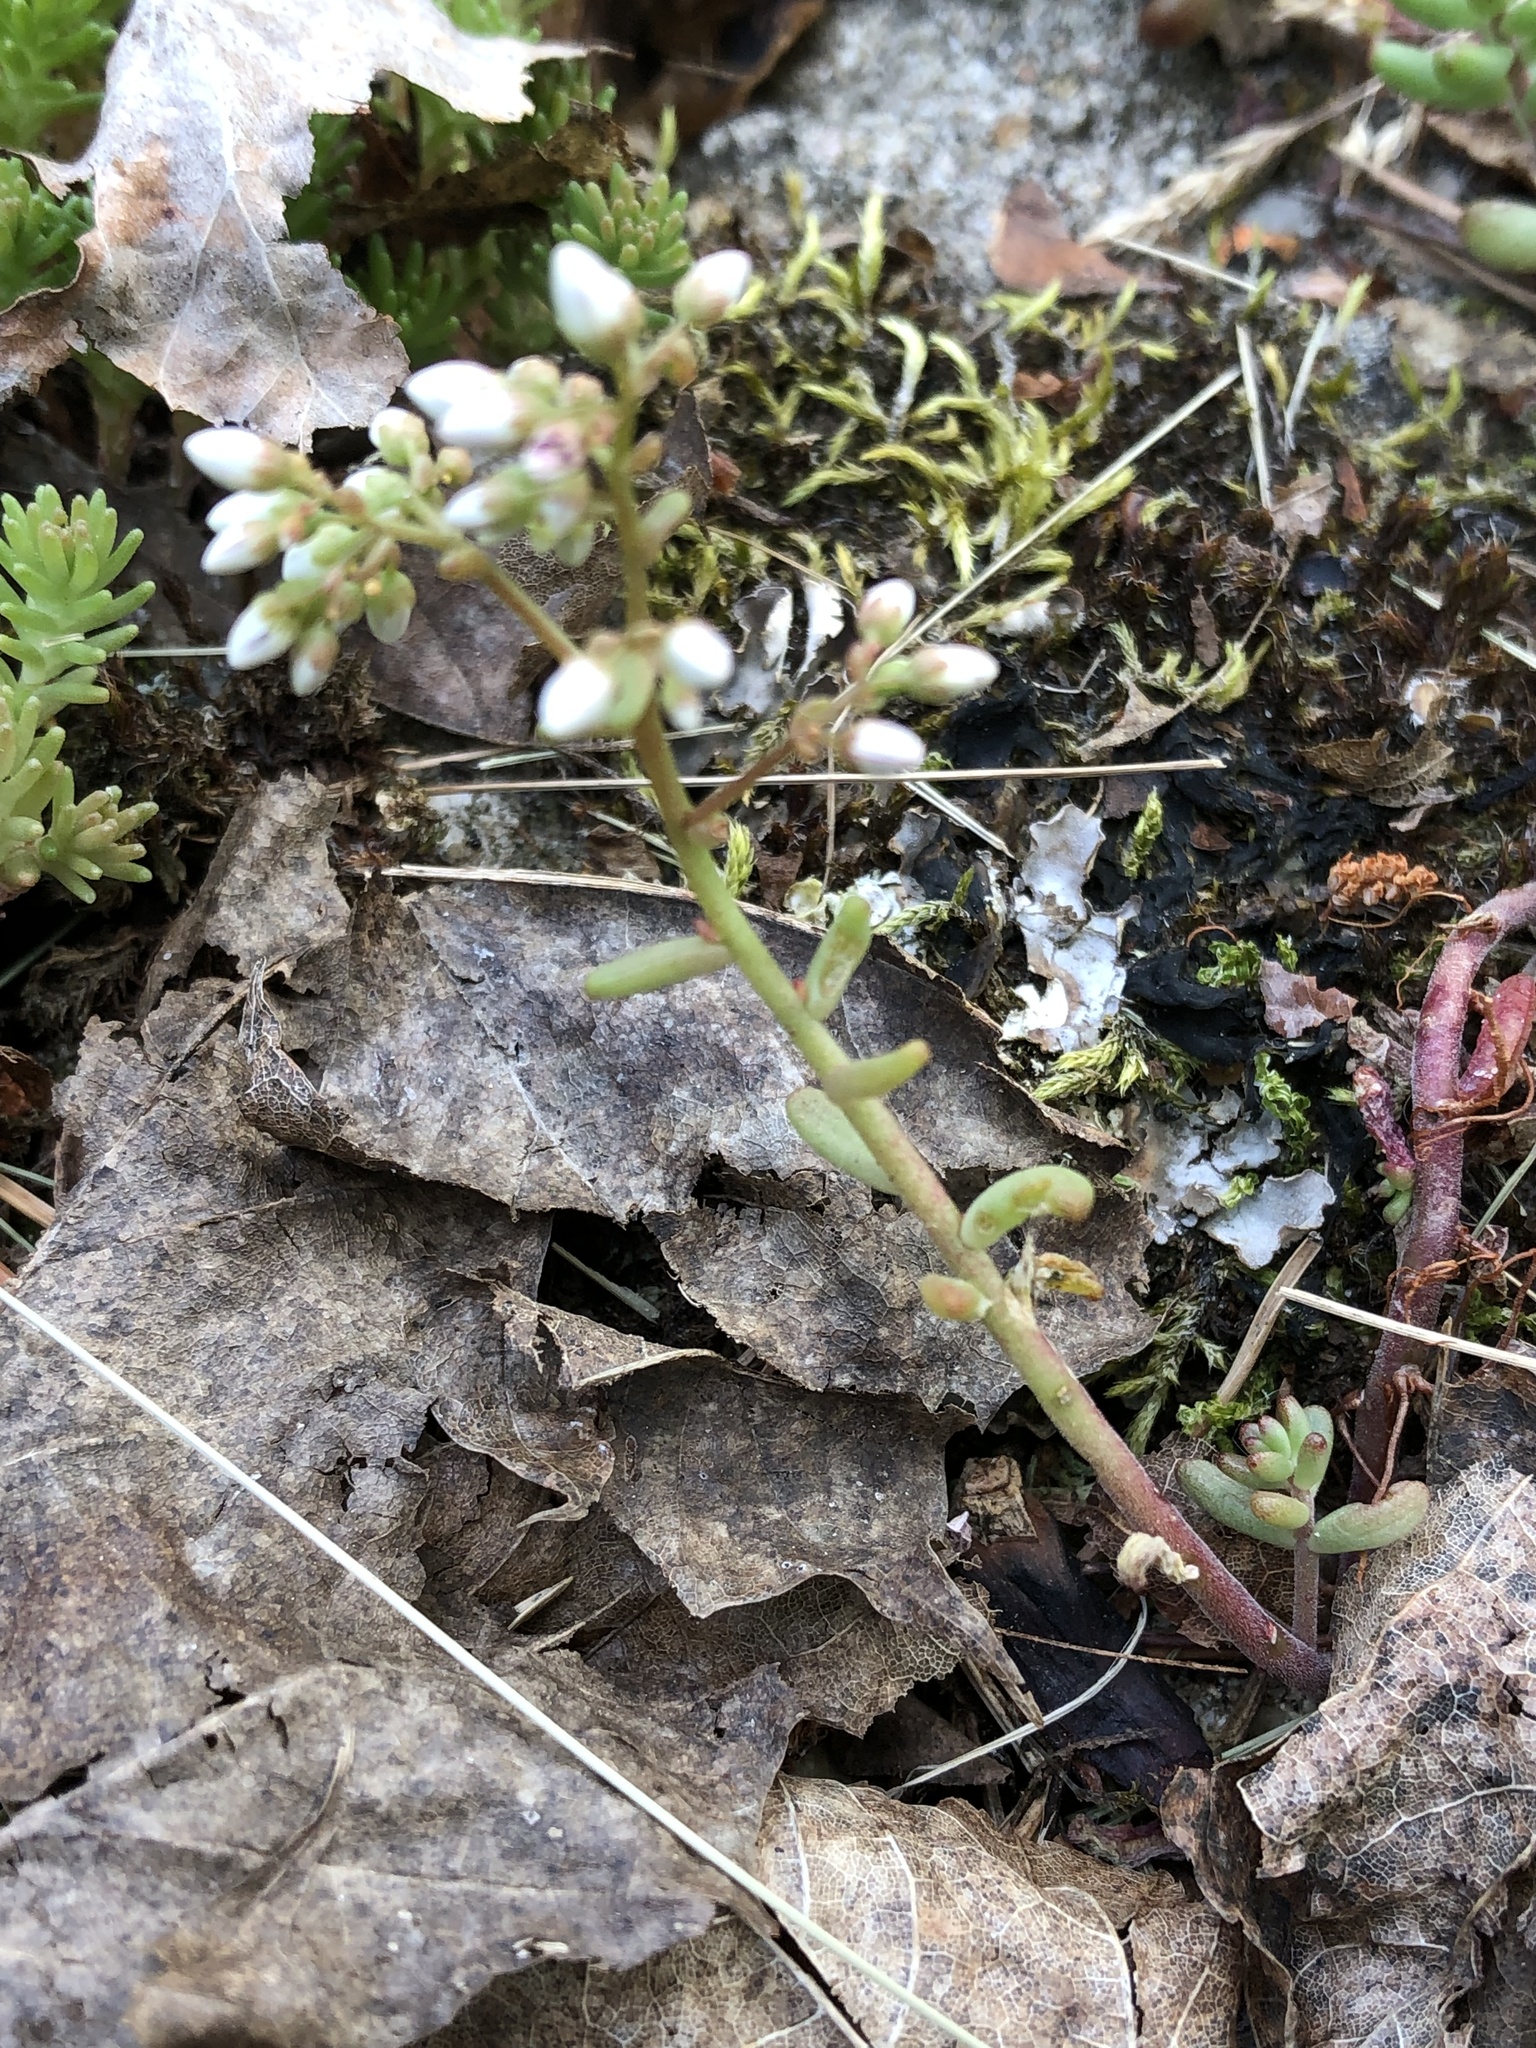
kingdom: Plantae
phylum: Tracheophyta
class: Magnoliopsida
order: Saxifragales
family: Crassulaceae
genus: Sedum
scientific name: Sedum album
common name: White stonecrop
